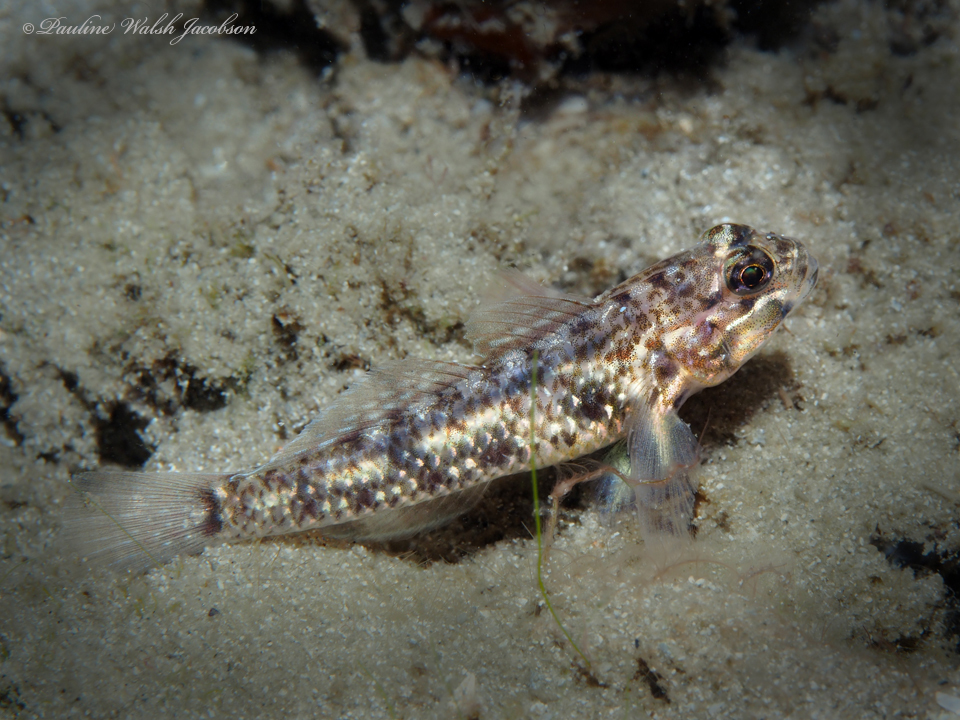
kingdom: Animalia
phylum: Chordata
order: Perciformes
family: Gobiidae
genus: Coryphopterus
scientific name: Coryphopterus dicrus
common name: Colon goby
